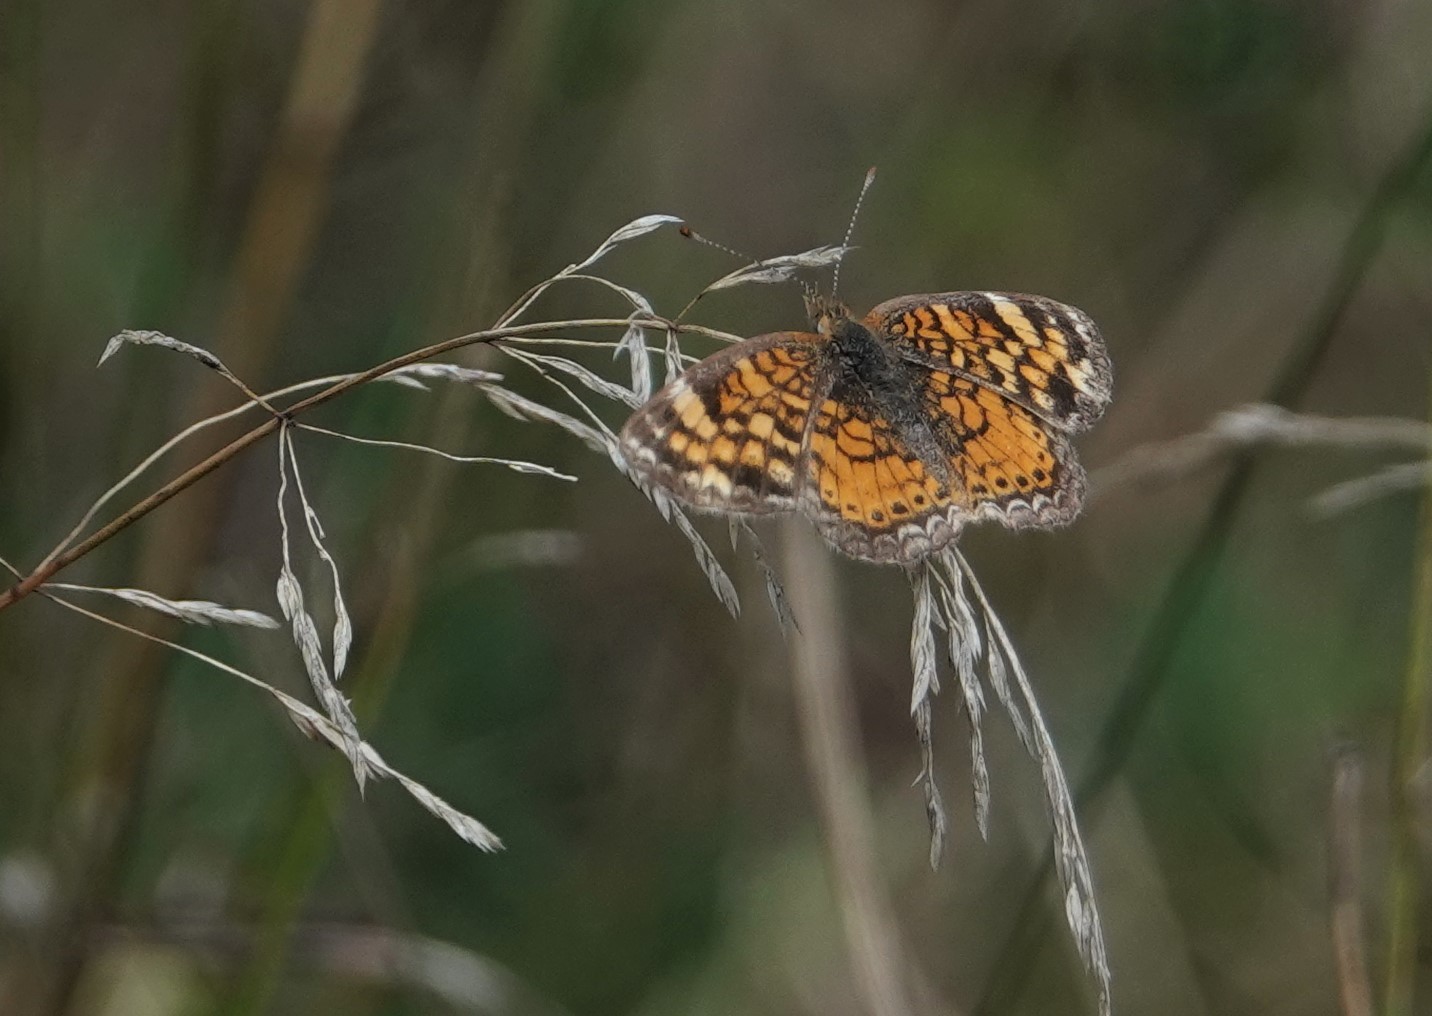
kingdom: Animalia
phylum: Arthropoda
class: Insecta
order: Lepidoptera
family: Nymphalidae
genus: Phyciodes
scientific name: Phyciodes tharos
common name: Pearl crescent
